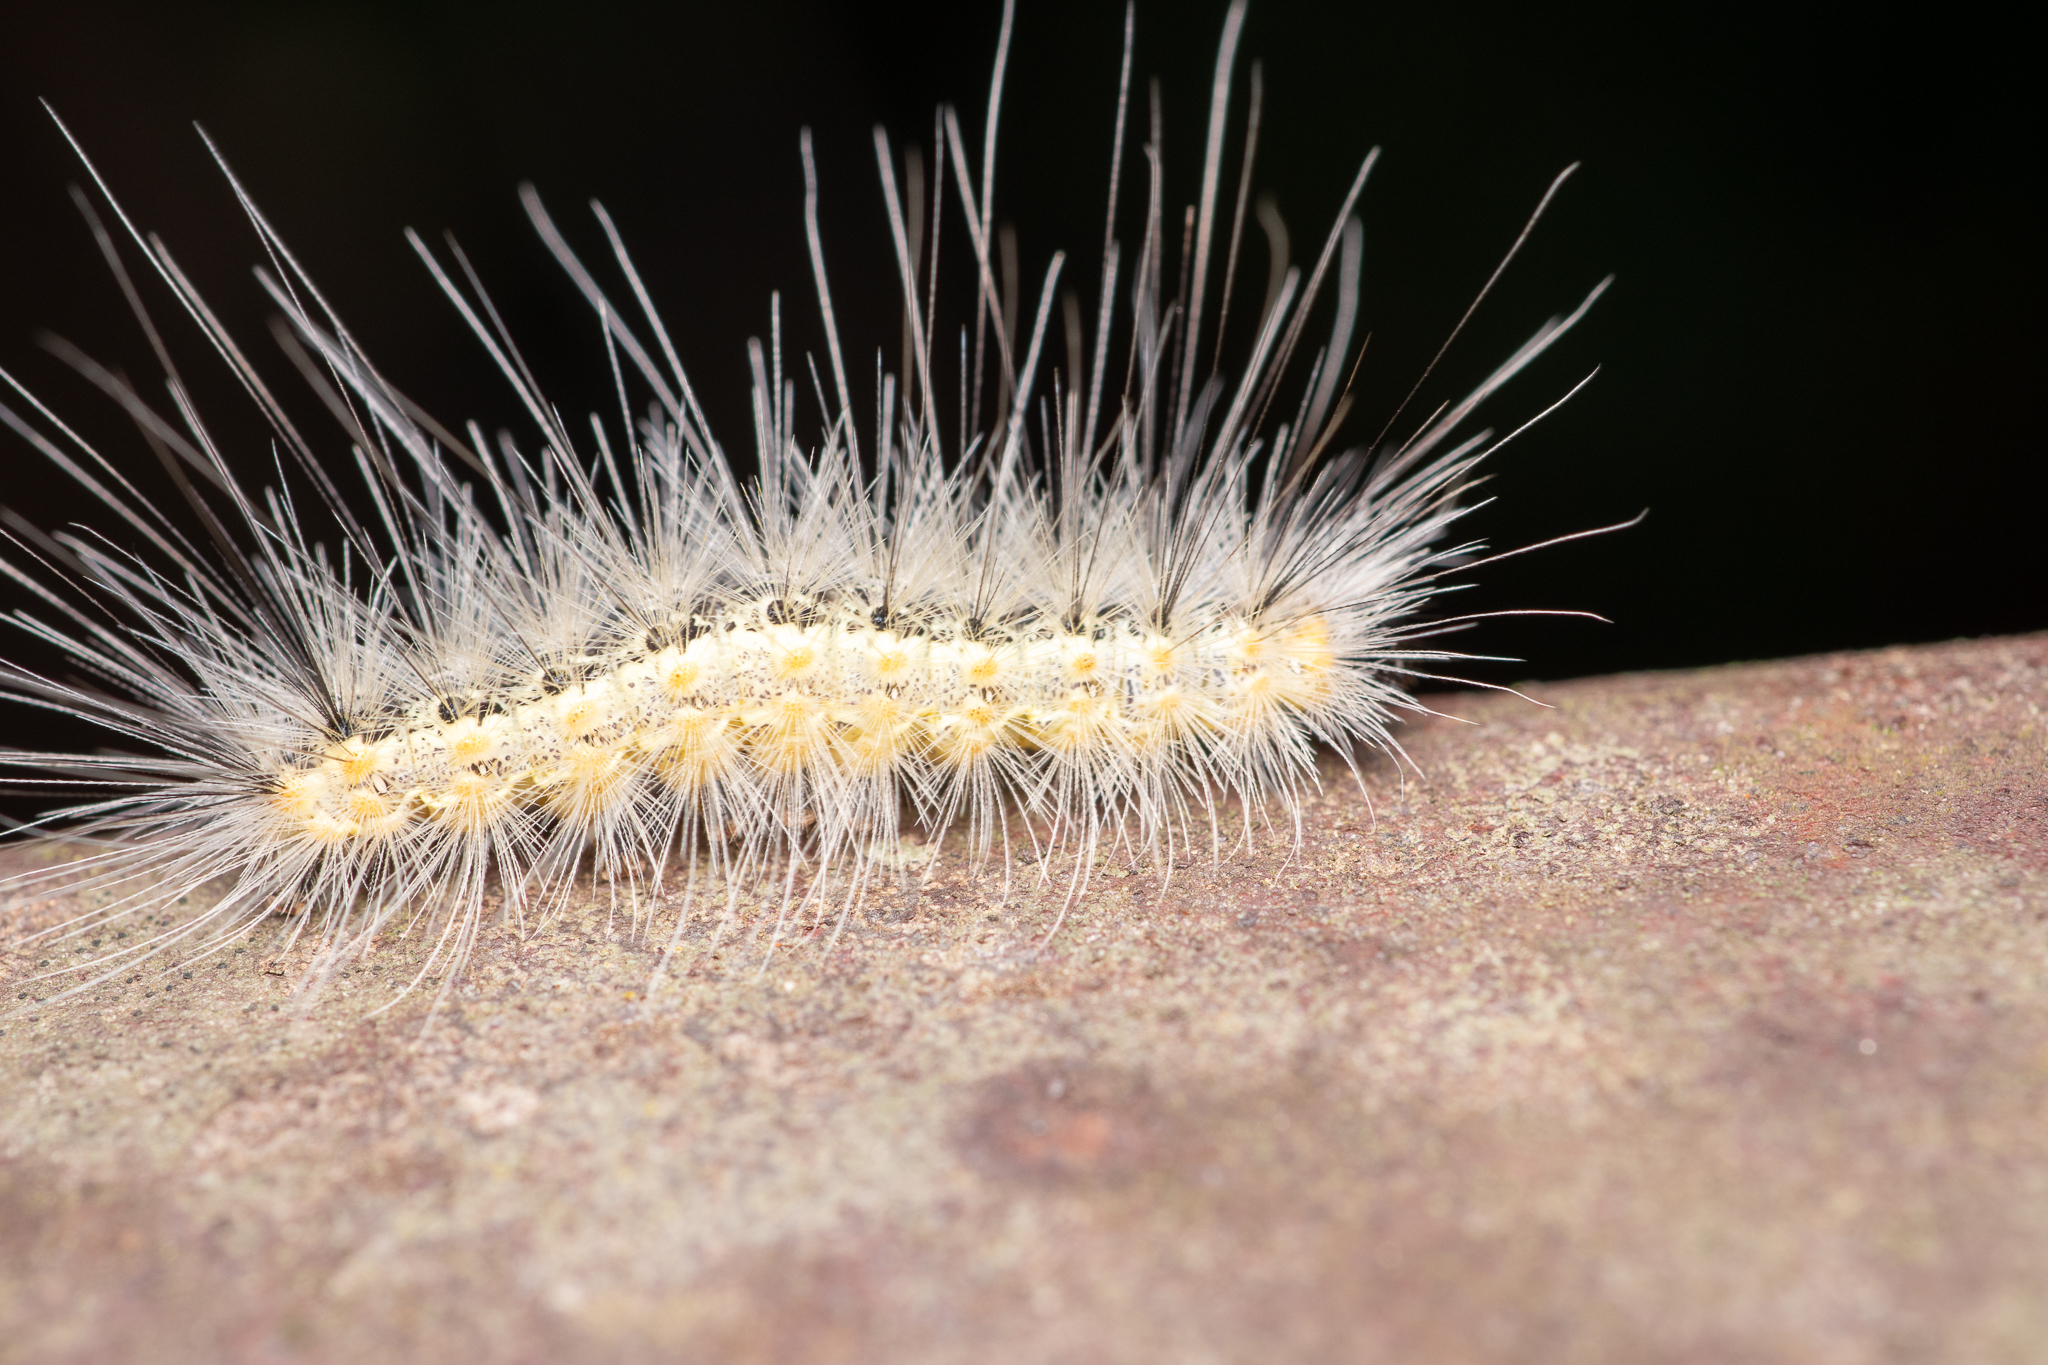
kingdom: Animalia
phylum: Arthropoda
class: Insecta
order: Lepidoptera
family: Erebidae
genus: Hyphantria
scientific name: Hyphantria cunea
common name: American white moth
